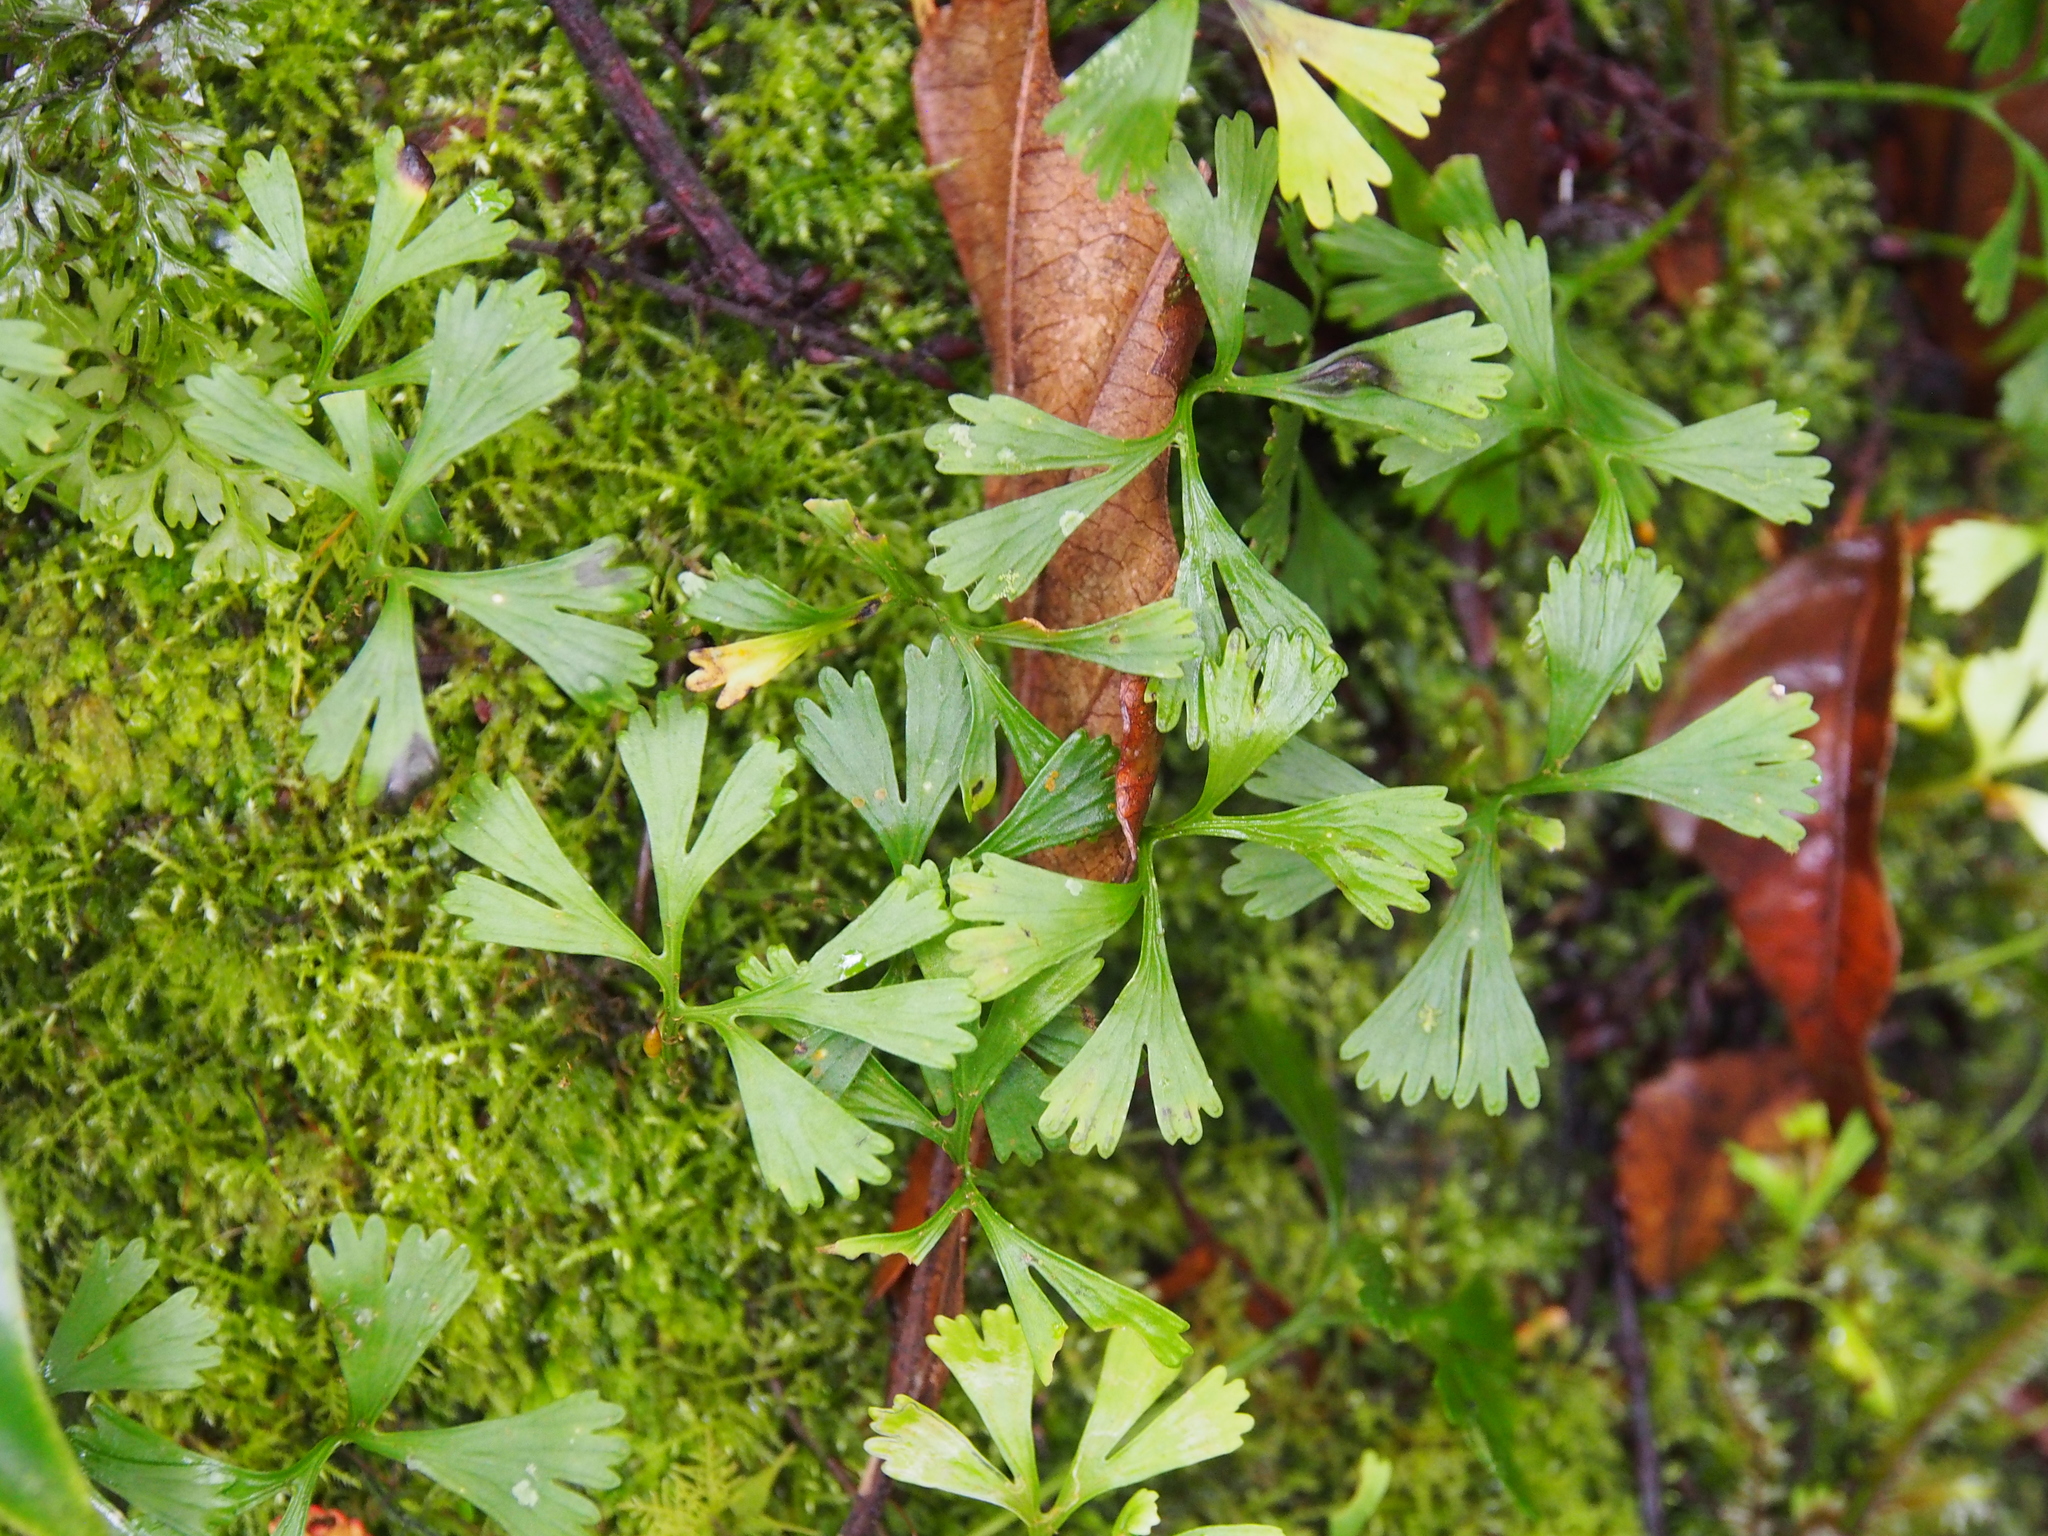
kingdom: Plantae
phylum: Tracheophyta
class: Polypodiopsida
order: Polypodiales
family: Dryopteridaceae
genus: Elaphoglossum
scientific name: Elaphoglossum peltatum
